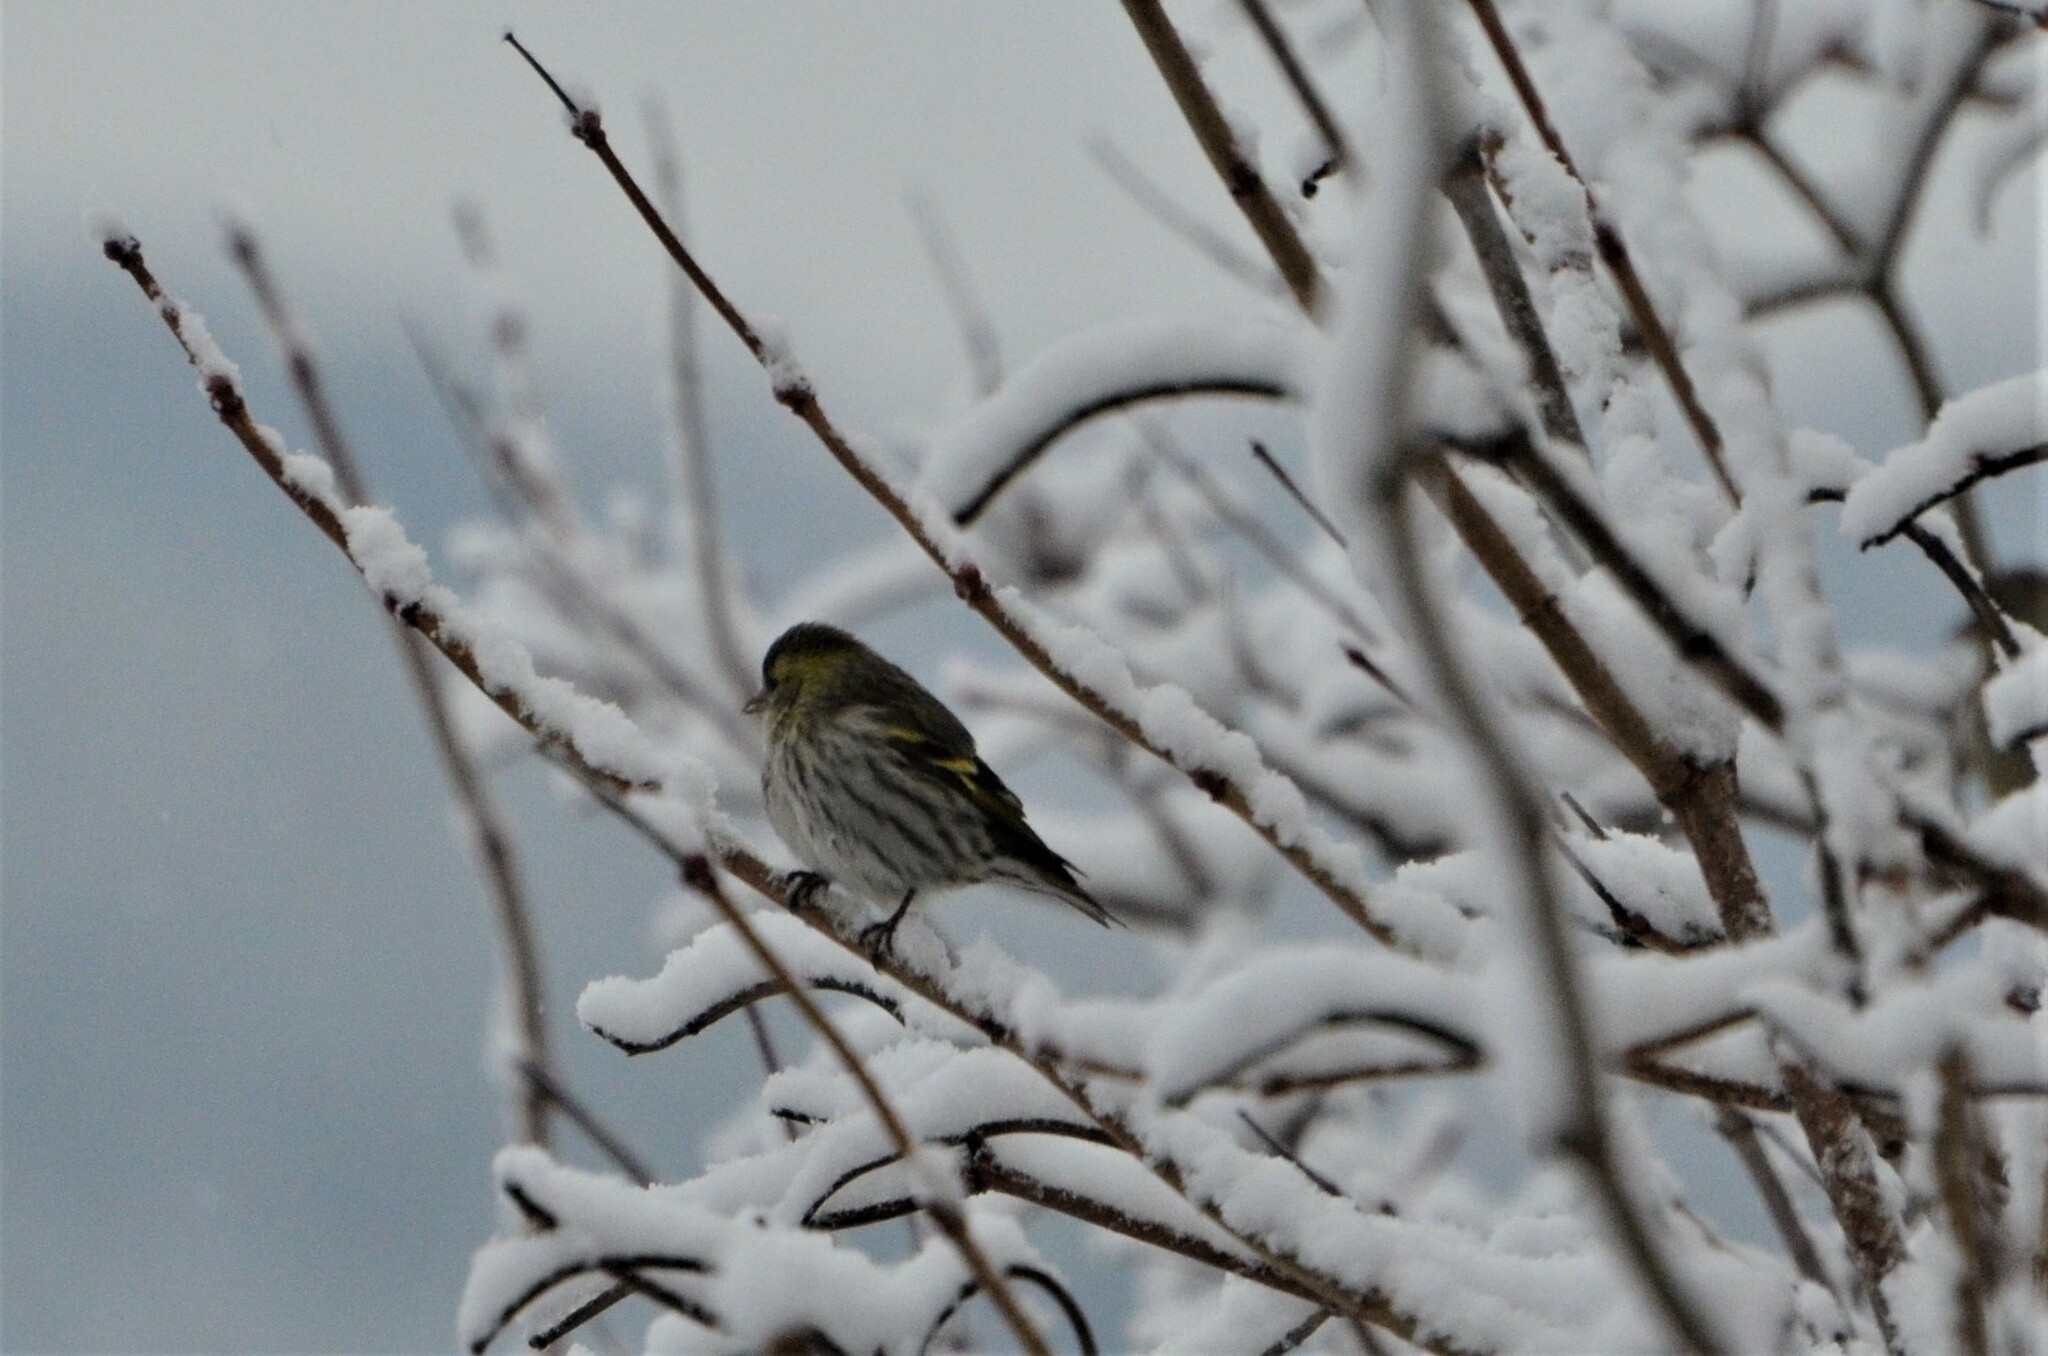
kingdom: Animalia
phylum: Chordata
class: Aves
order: Passeriformes
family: Fringillidae
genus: Spinus
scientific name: Spinus spinus
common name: Eurasian siskin
